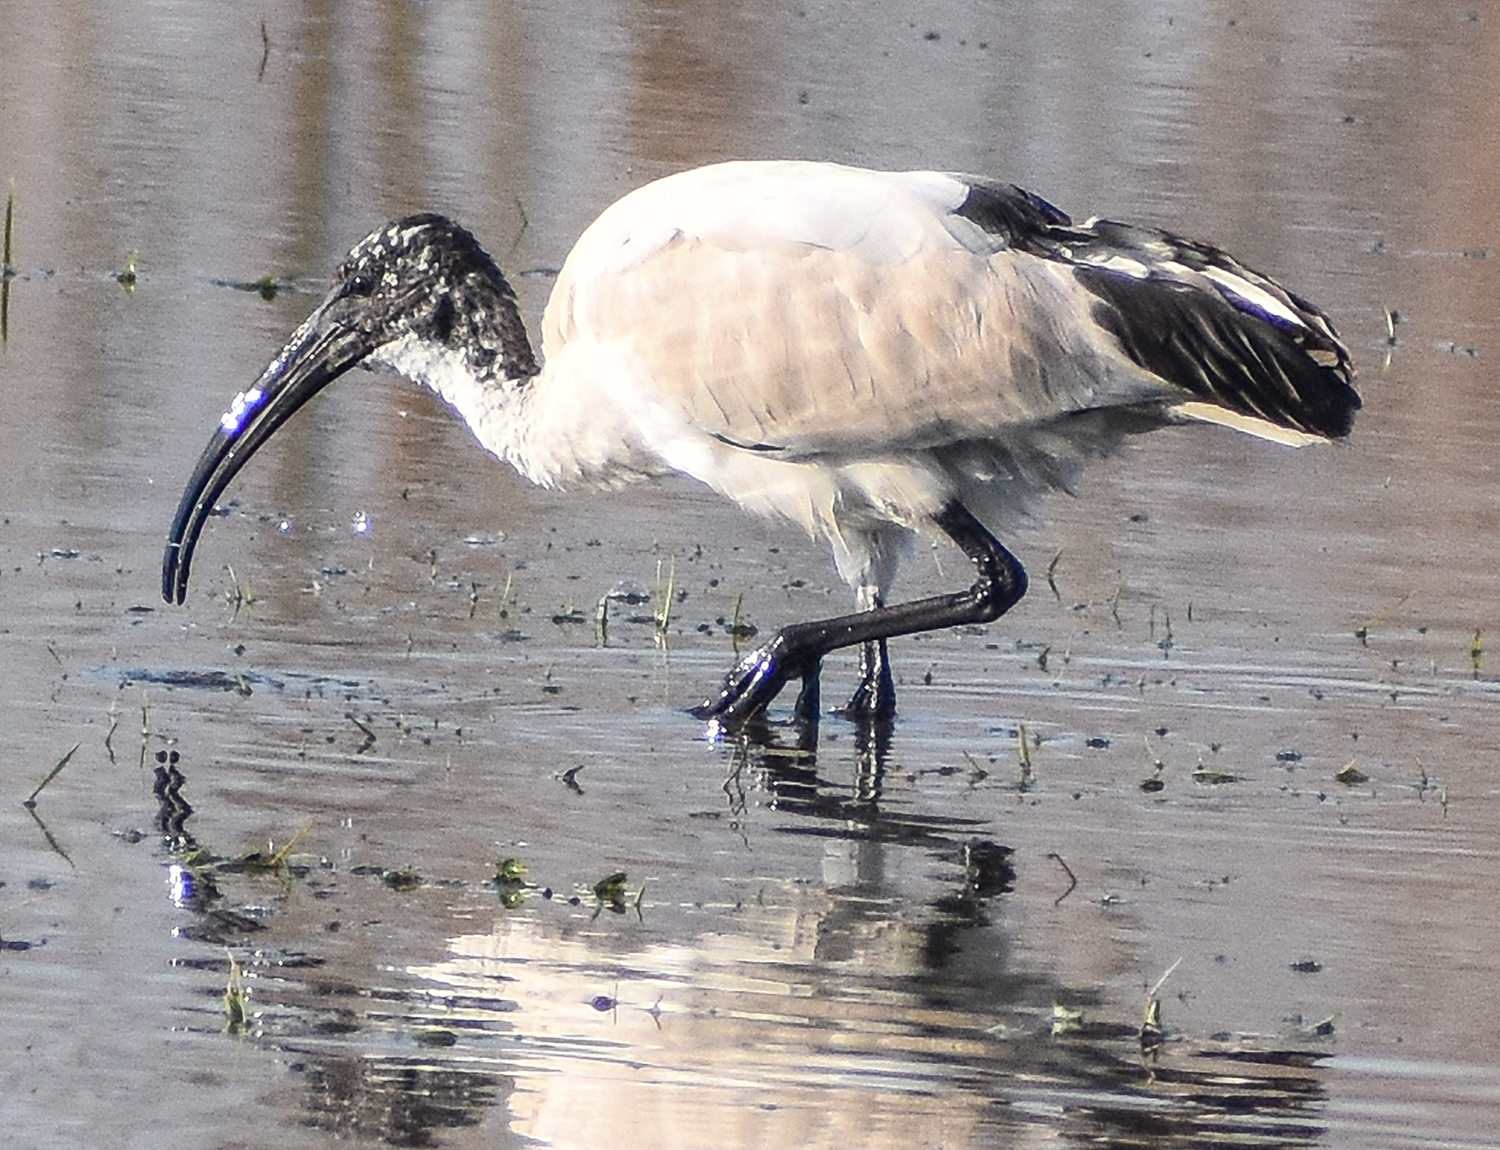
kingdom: Animalia
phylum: Chordata
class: Aves
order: Pelecaniformes
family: Threskiornithidae
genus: Threskiornis
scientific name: Threskiornis aethiopicus
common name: Sacred ibis
